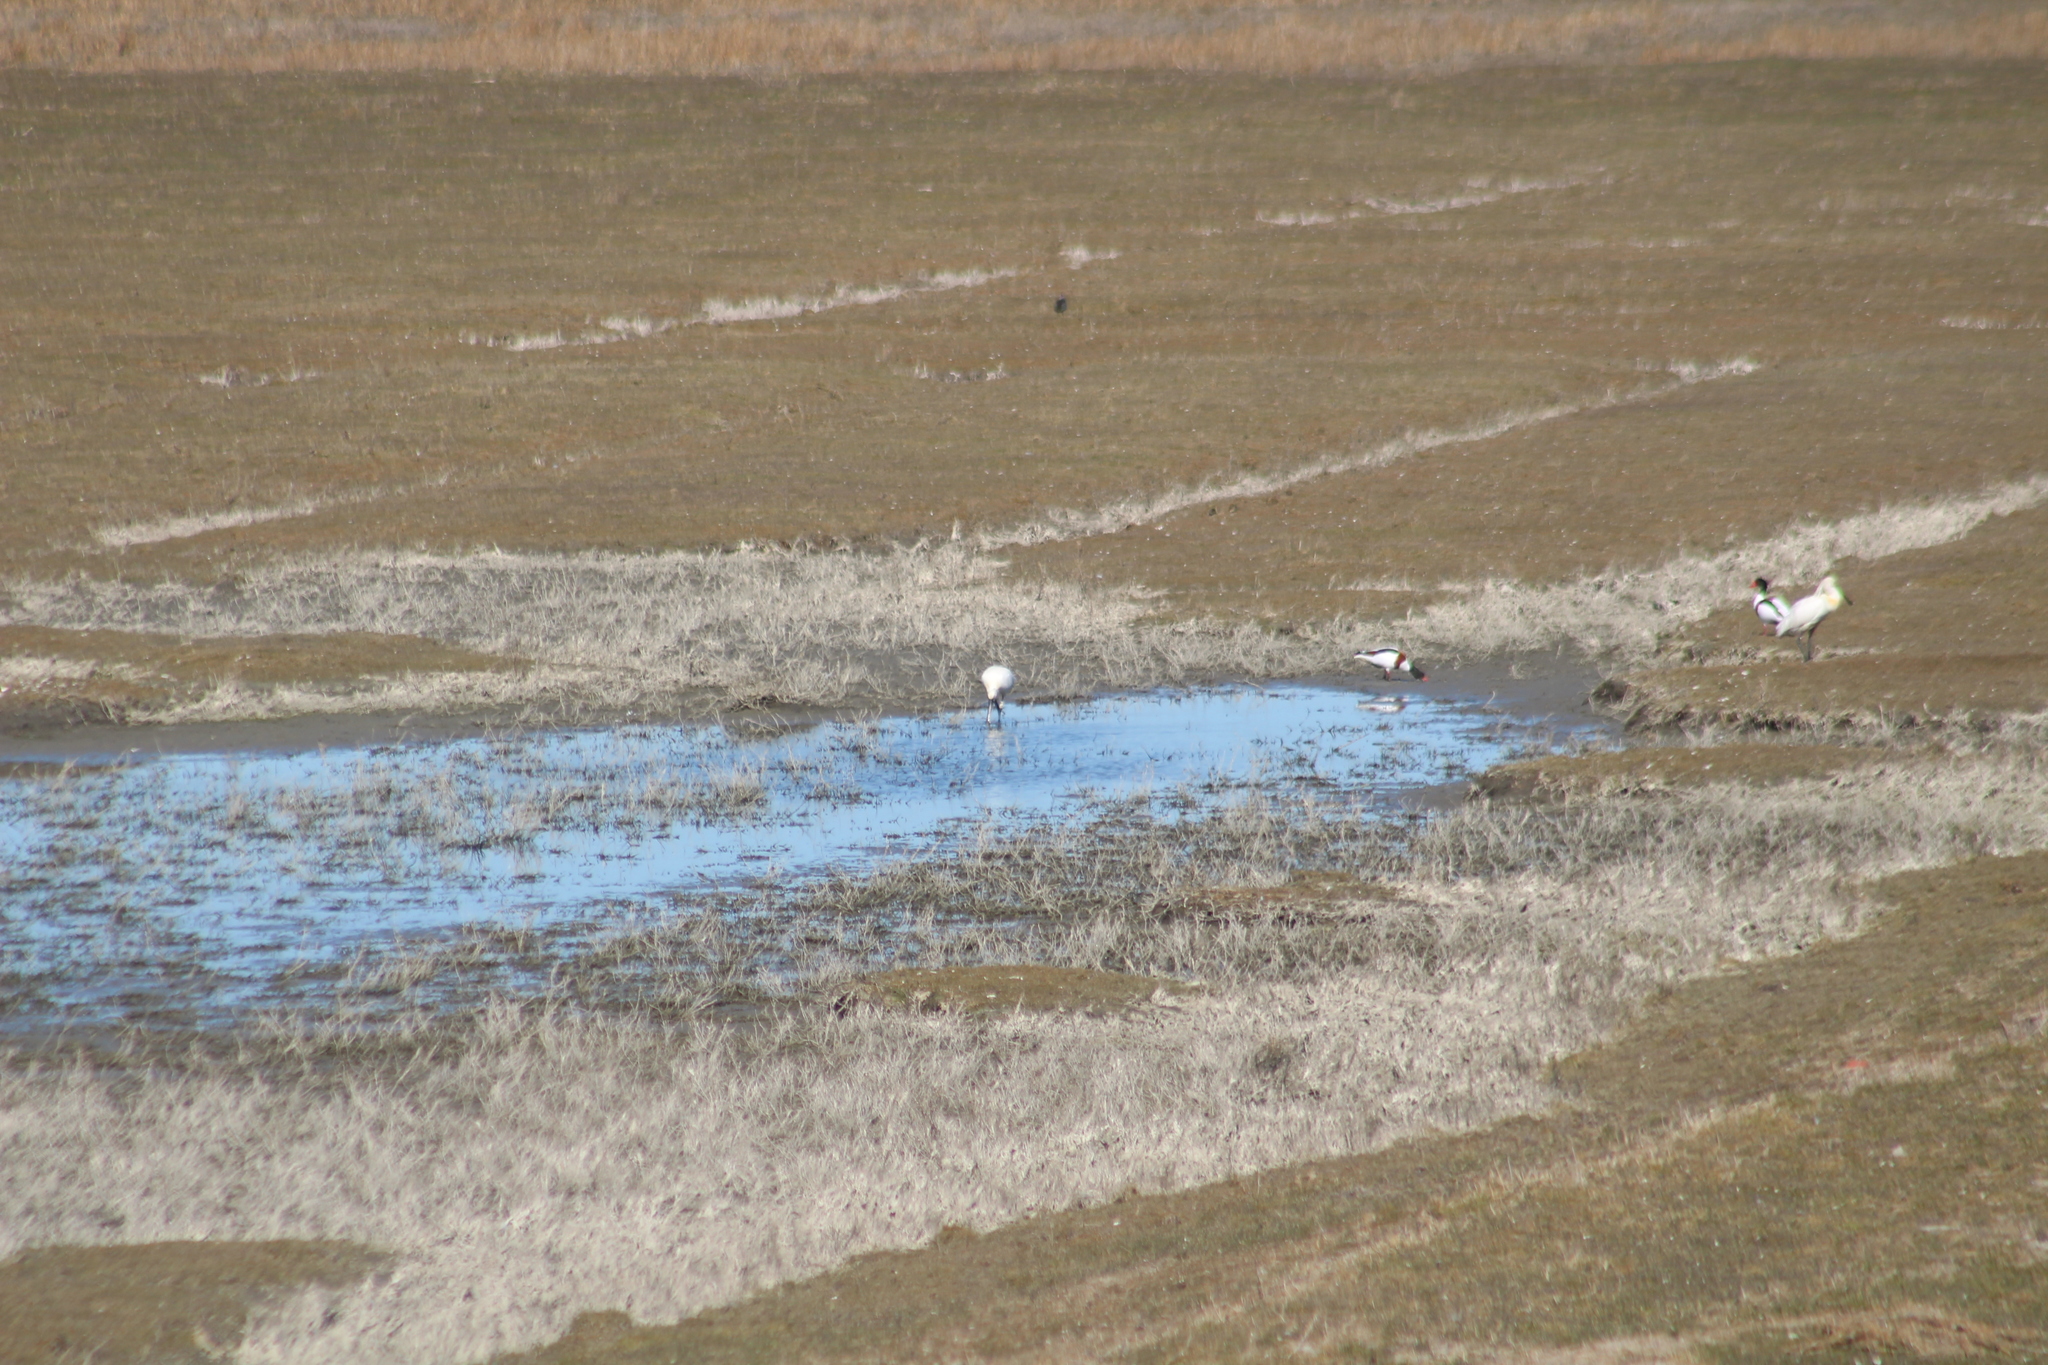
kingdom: Animalia
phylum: Chordata
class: Aves
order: Pelecaniformes
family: Threskiornithidae
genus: Platalea
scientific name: Platalea leucorodia
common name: Eurasian spoonbill
